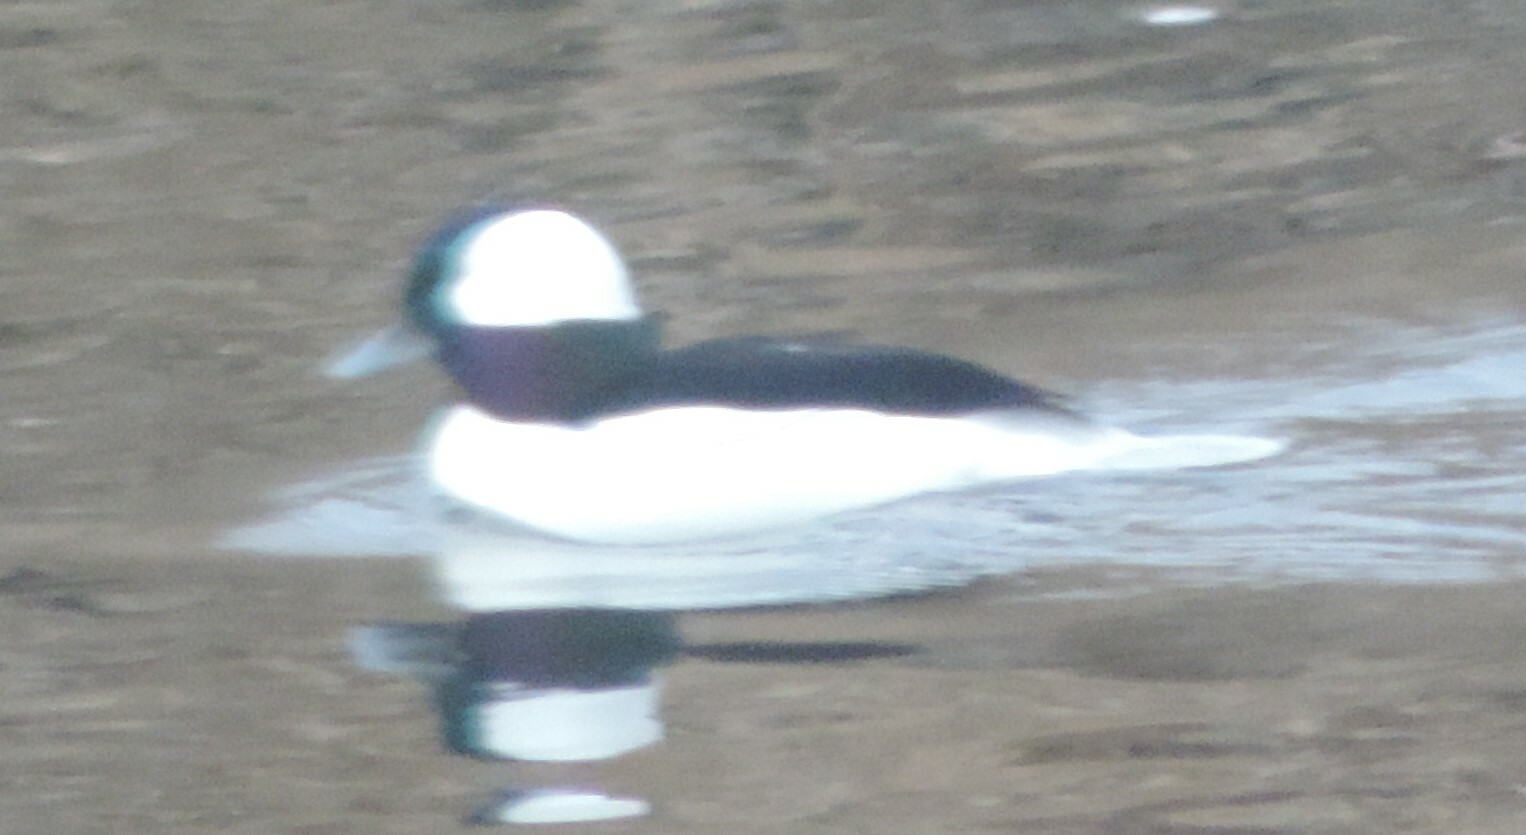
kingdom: Animalia
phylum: Chordata
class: Aves
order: Anseriformes
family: Anatidae
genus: Bucephala
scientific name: Bucephala albeola
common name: Bufflehead
